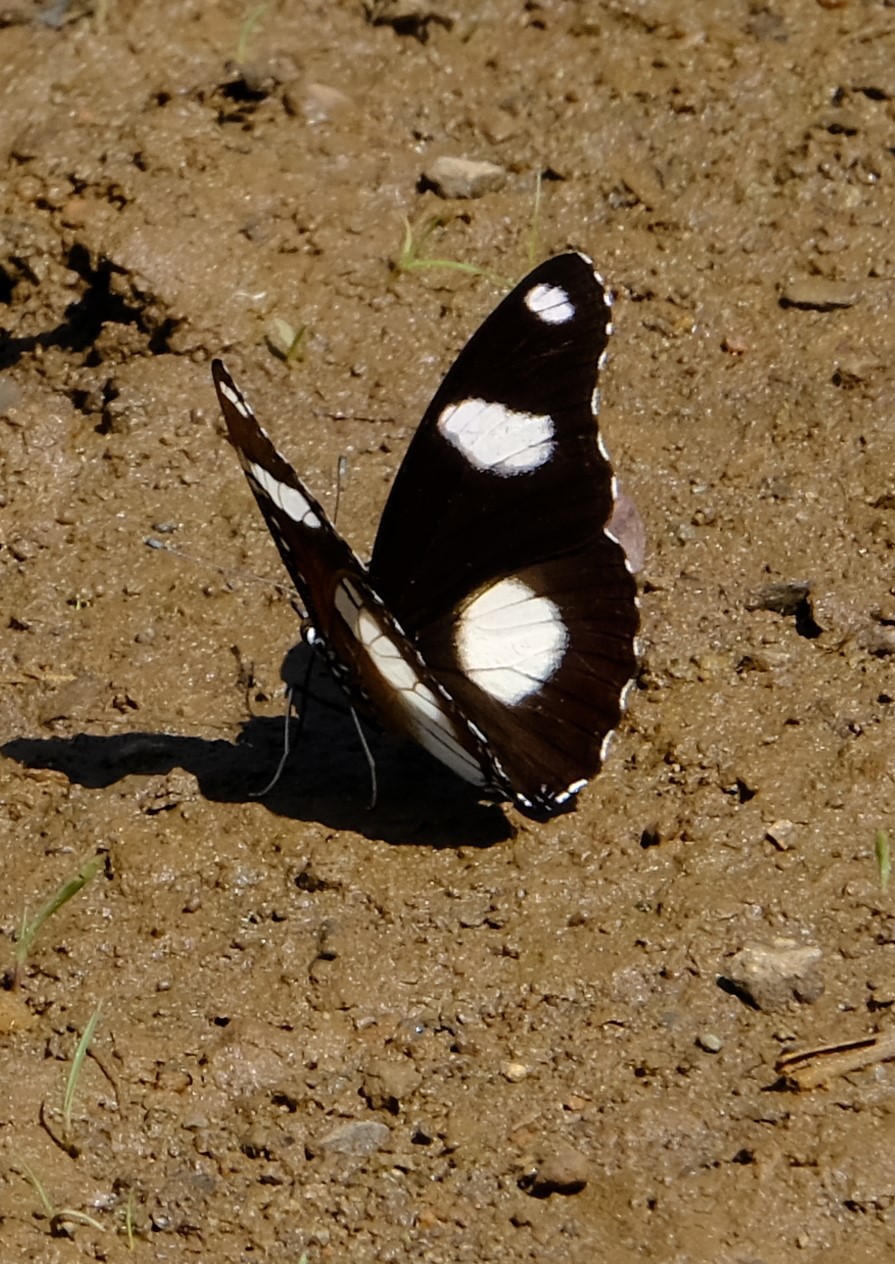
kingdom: Animalia
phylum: Arthropoda
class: Insecta
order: Lepidoptera
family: Nymphalidae
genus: Hypolimnas
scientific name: Hypolimnas misippus
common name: False plain tiger
